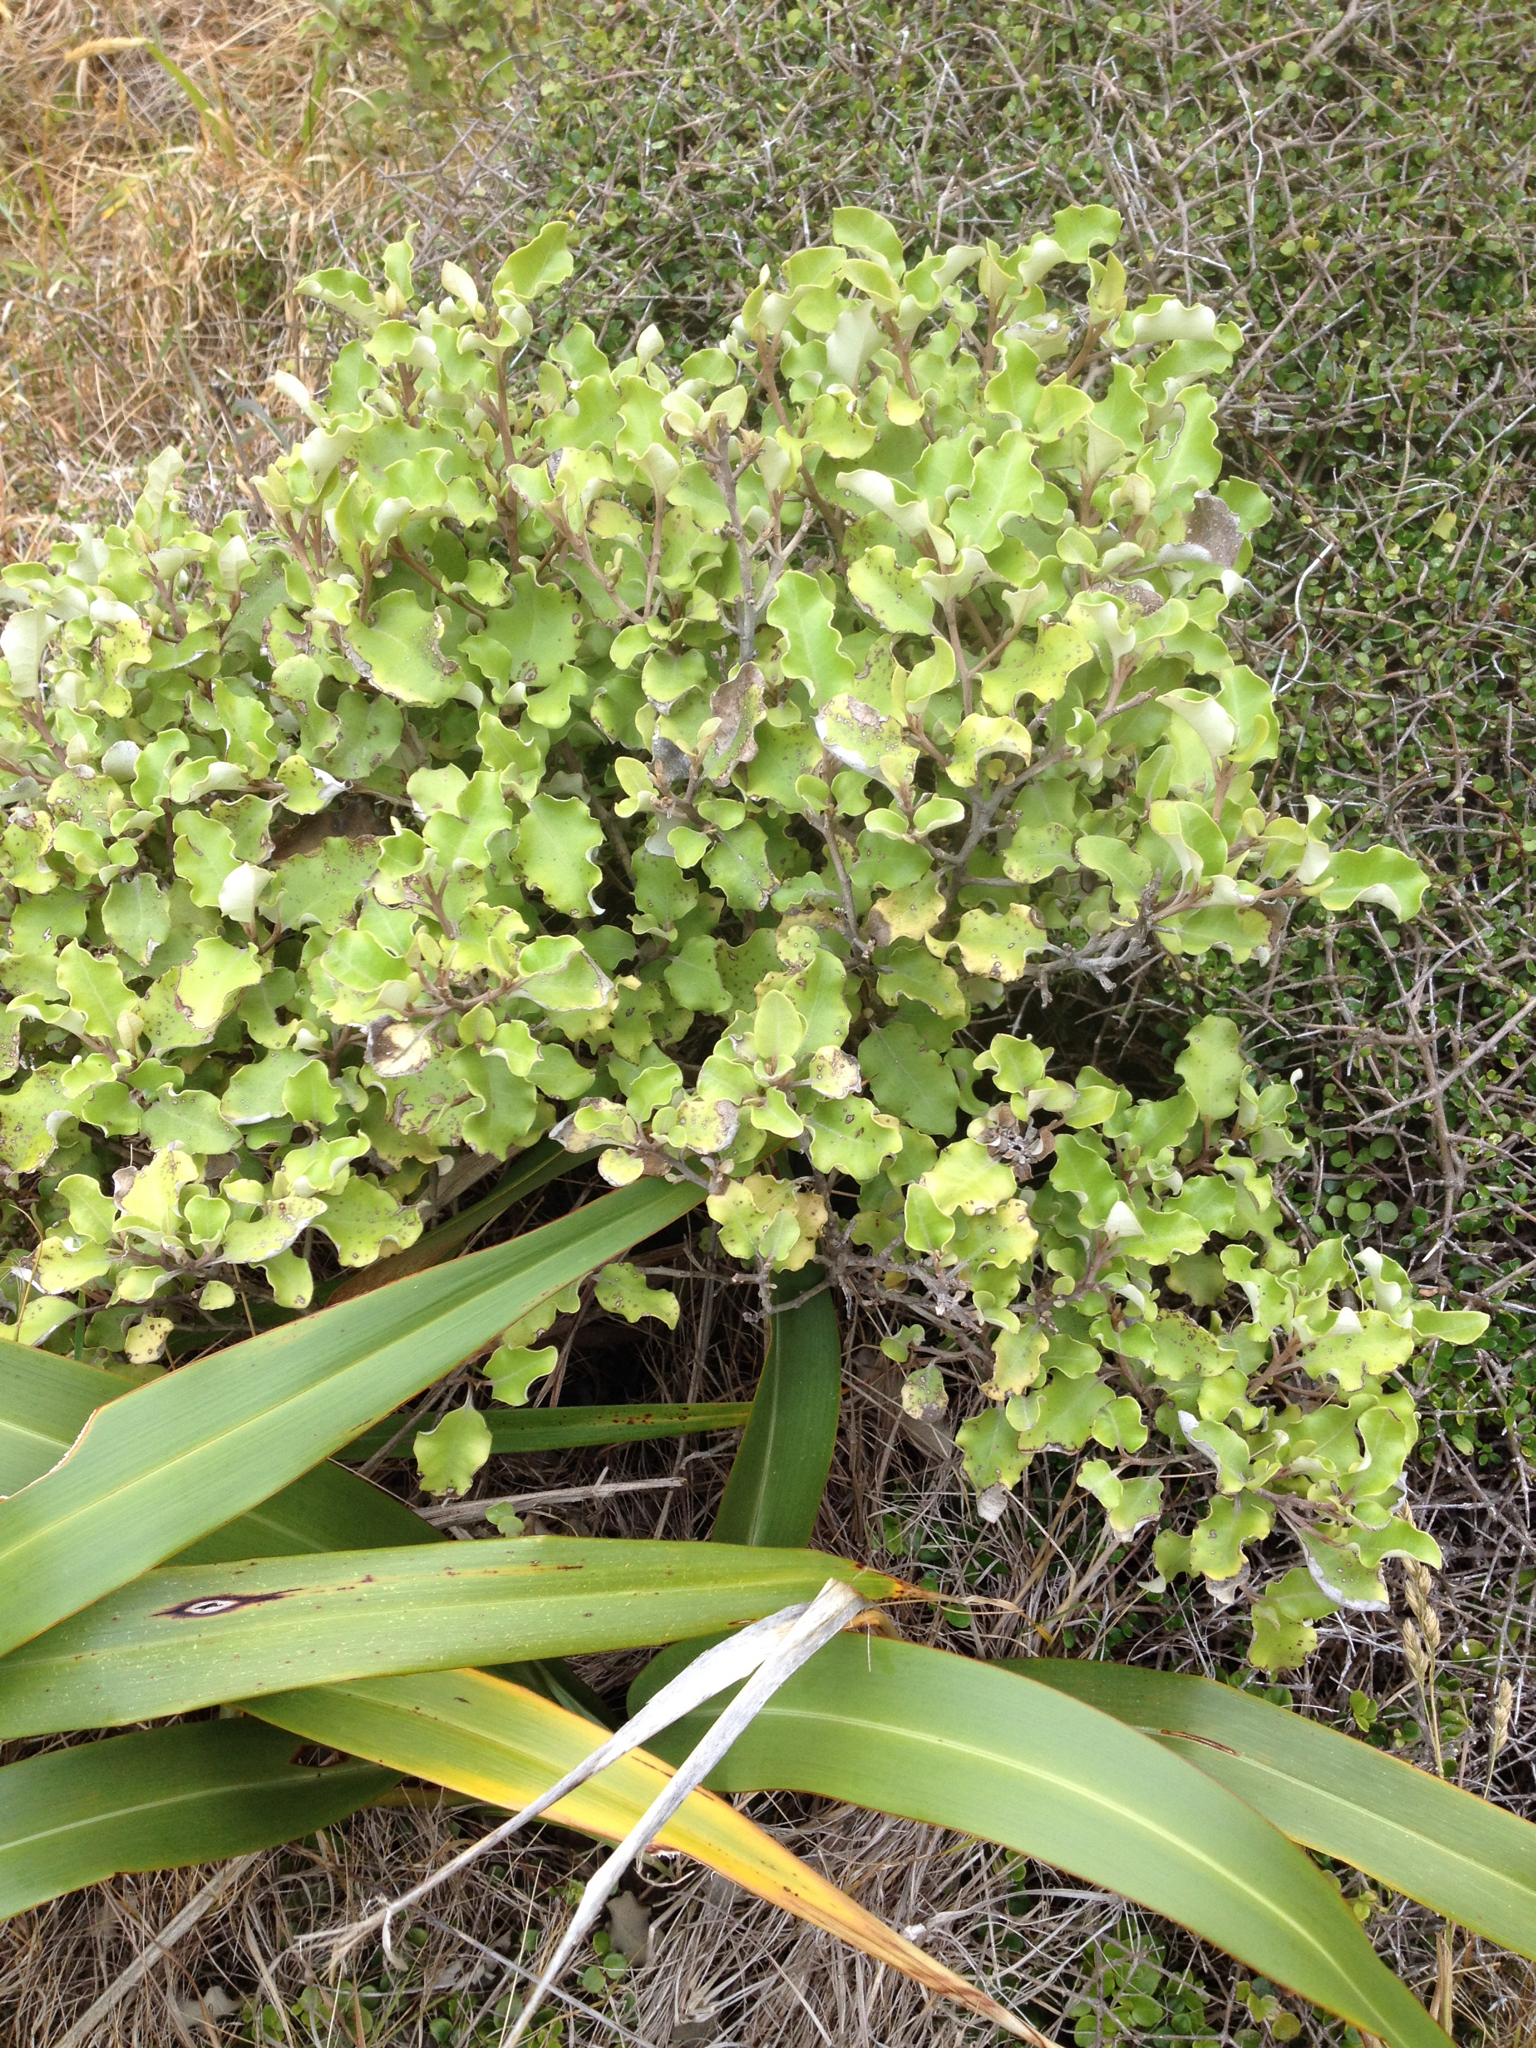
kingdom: Plantae
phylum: Tracheophyta
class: Magnoliopsida
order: Asterales
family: Asteraceae
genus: Olearia
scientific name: Olearia paniculata
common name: Akiraho
